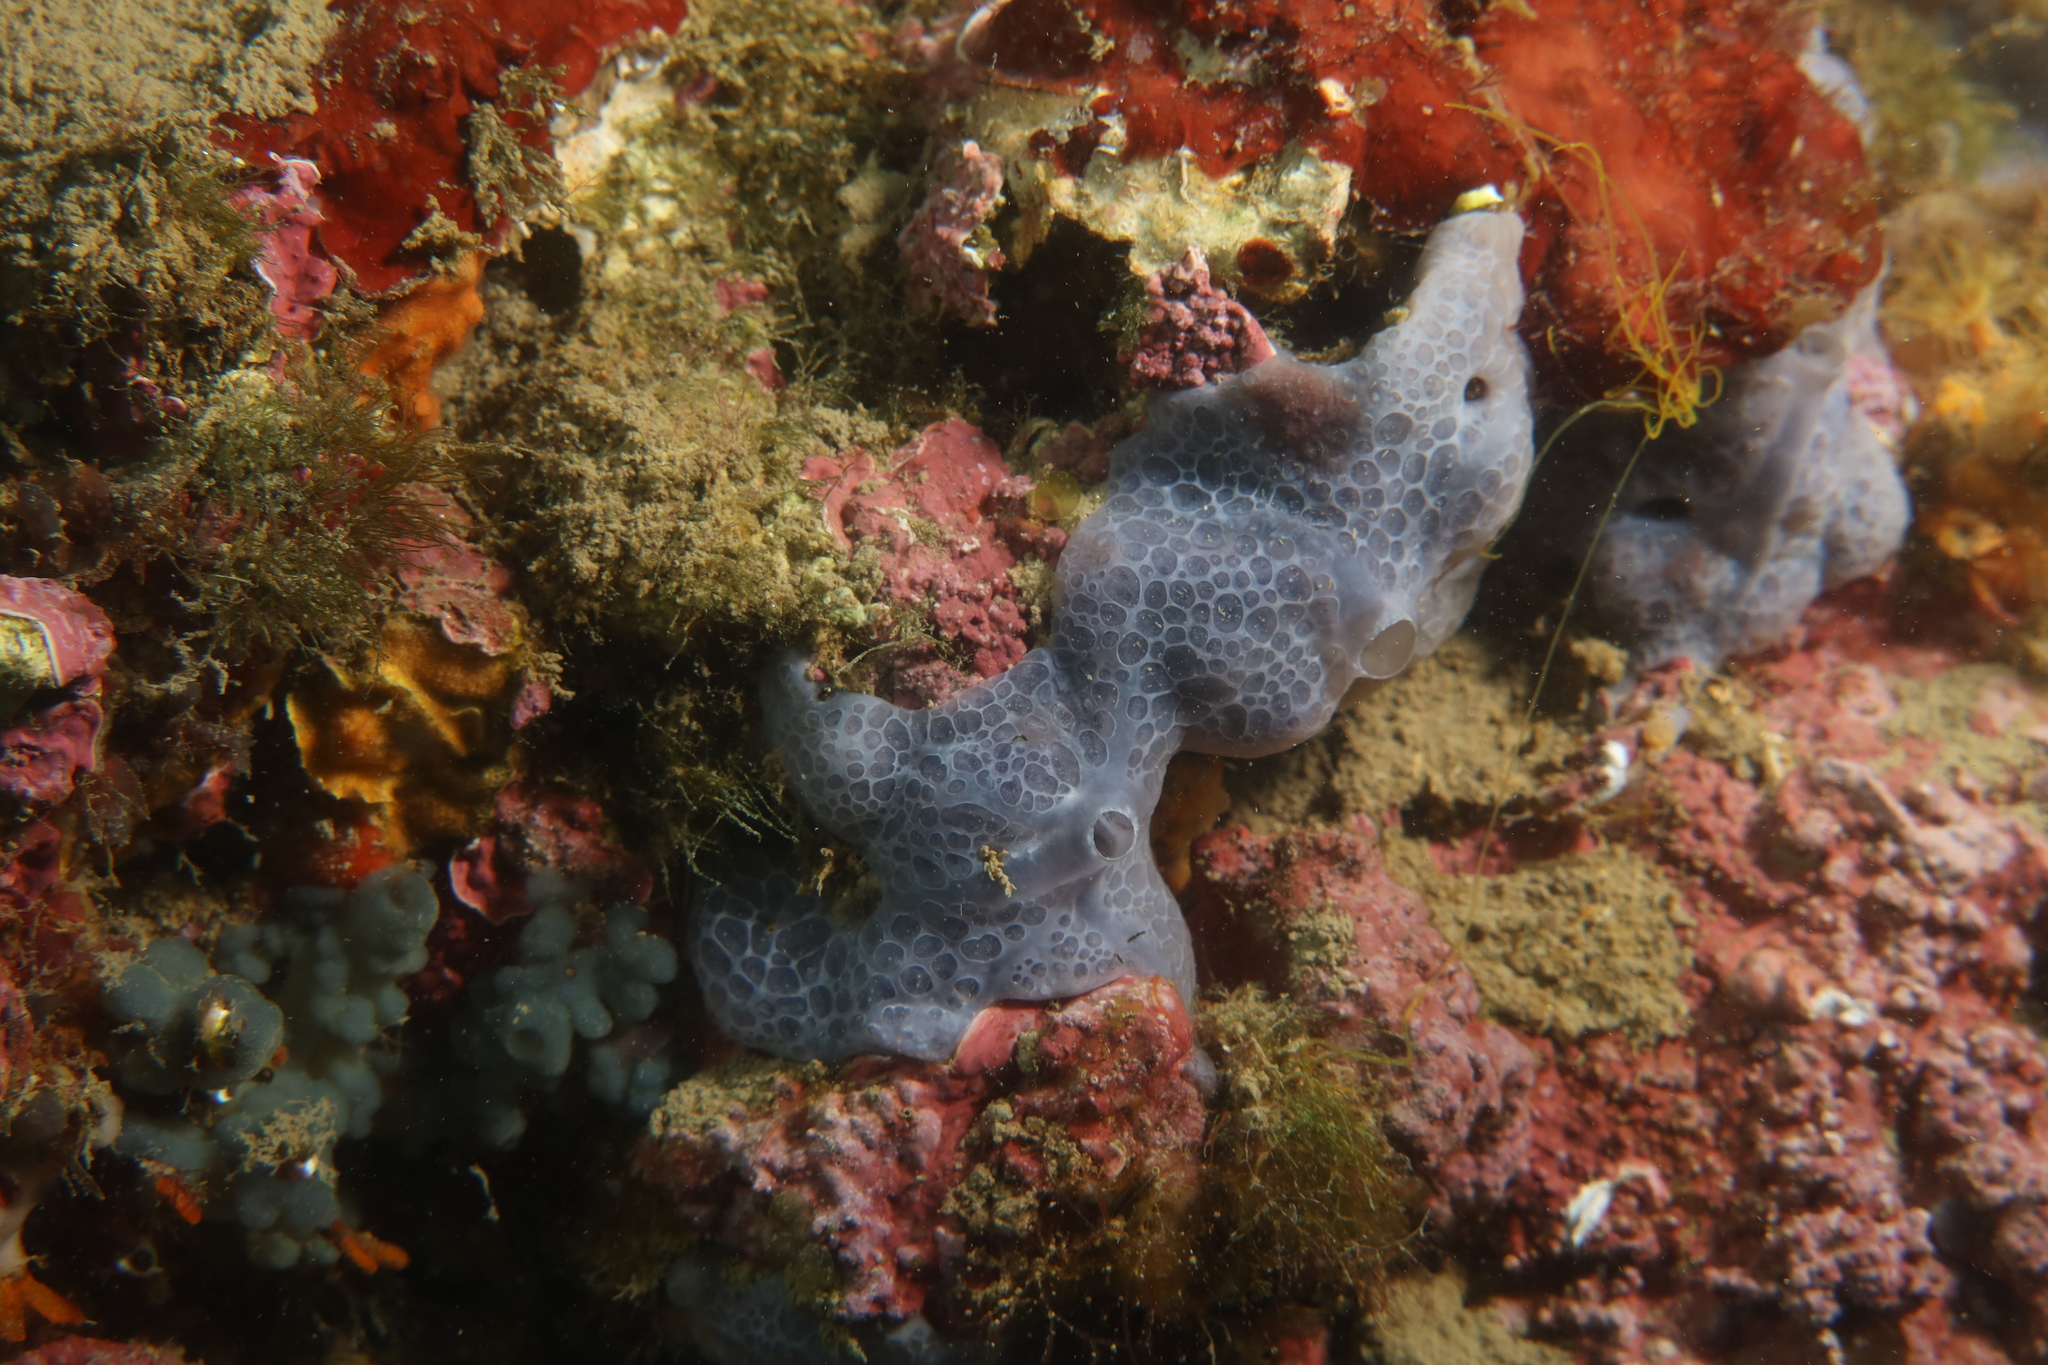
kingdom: Animalia
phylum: Porifera
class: Demospongiae
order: Poecilosclerida
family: Hymedesmiidae
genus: Phorbas
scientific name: Phorbas tenacior
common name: Bluish encrusting sponge
